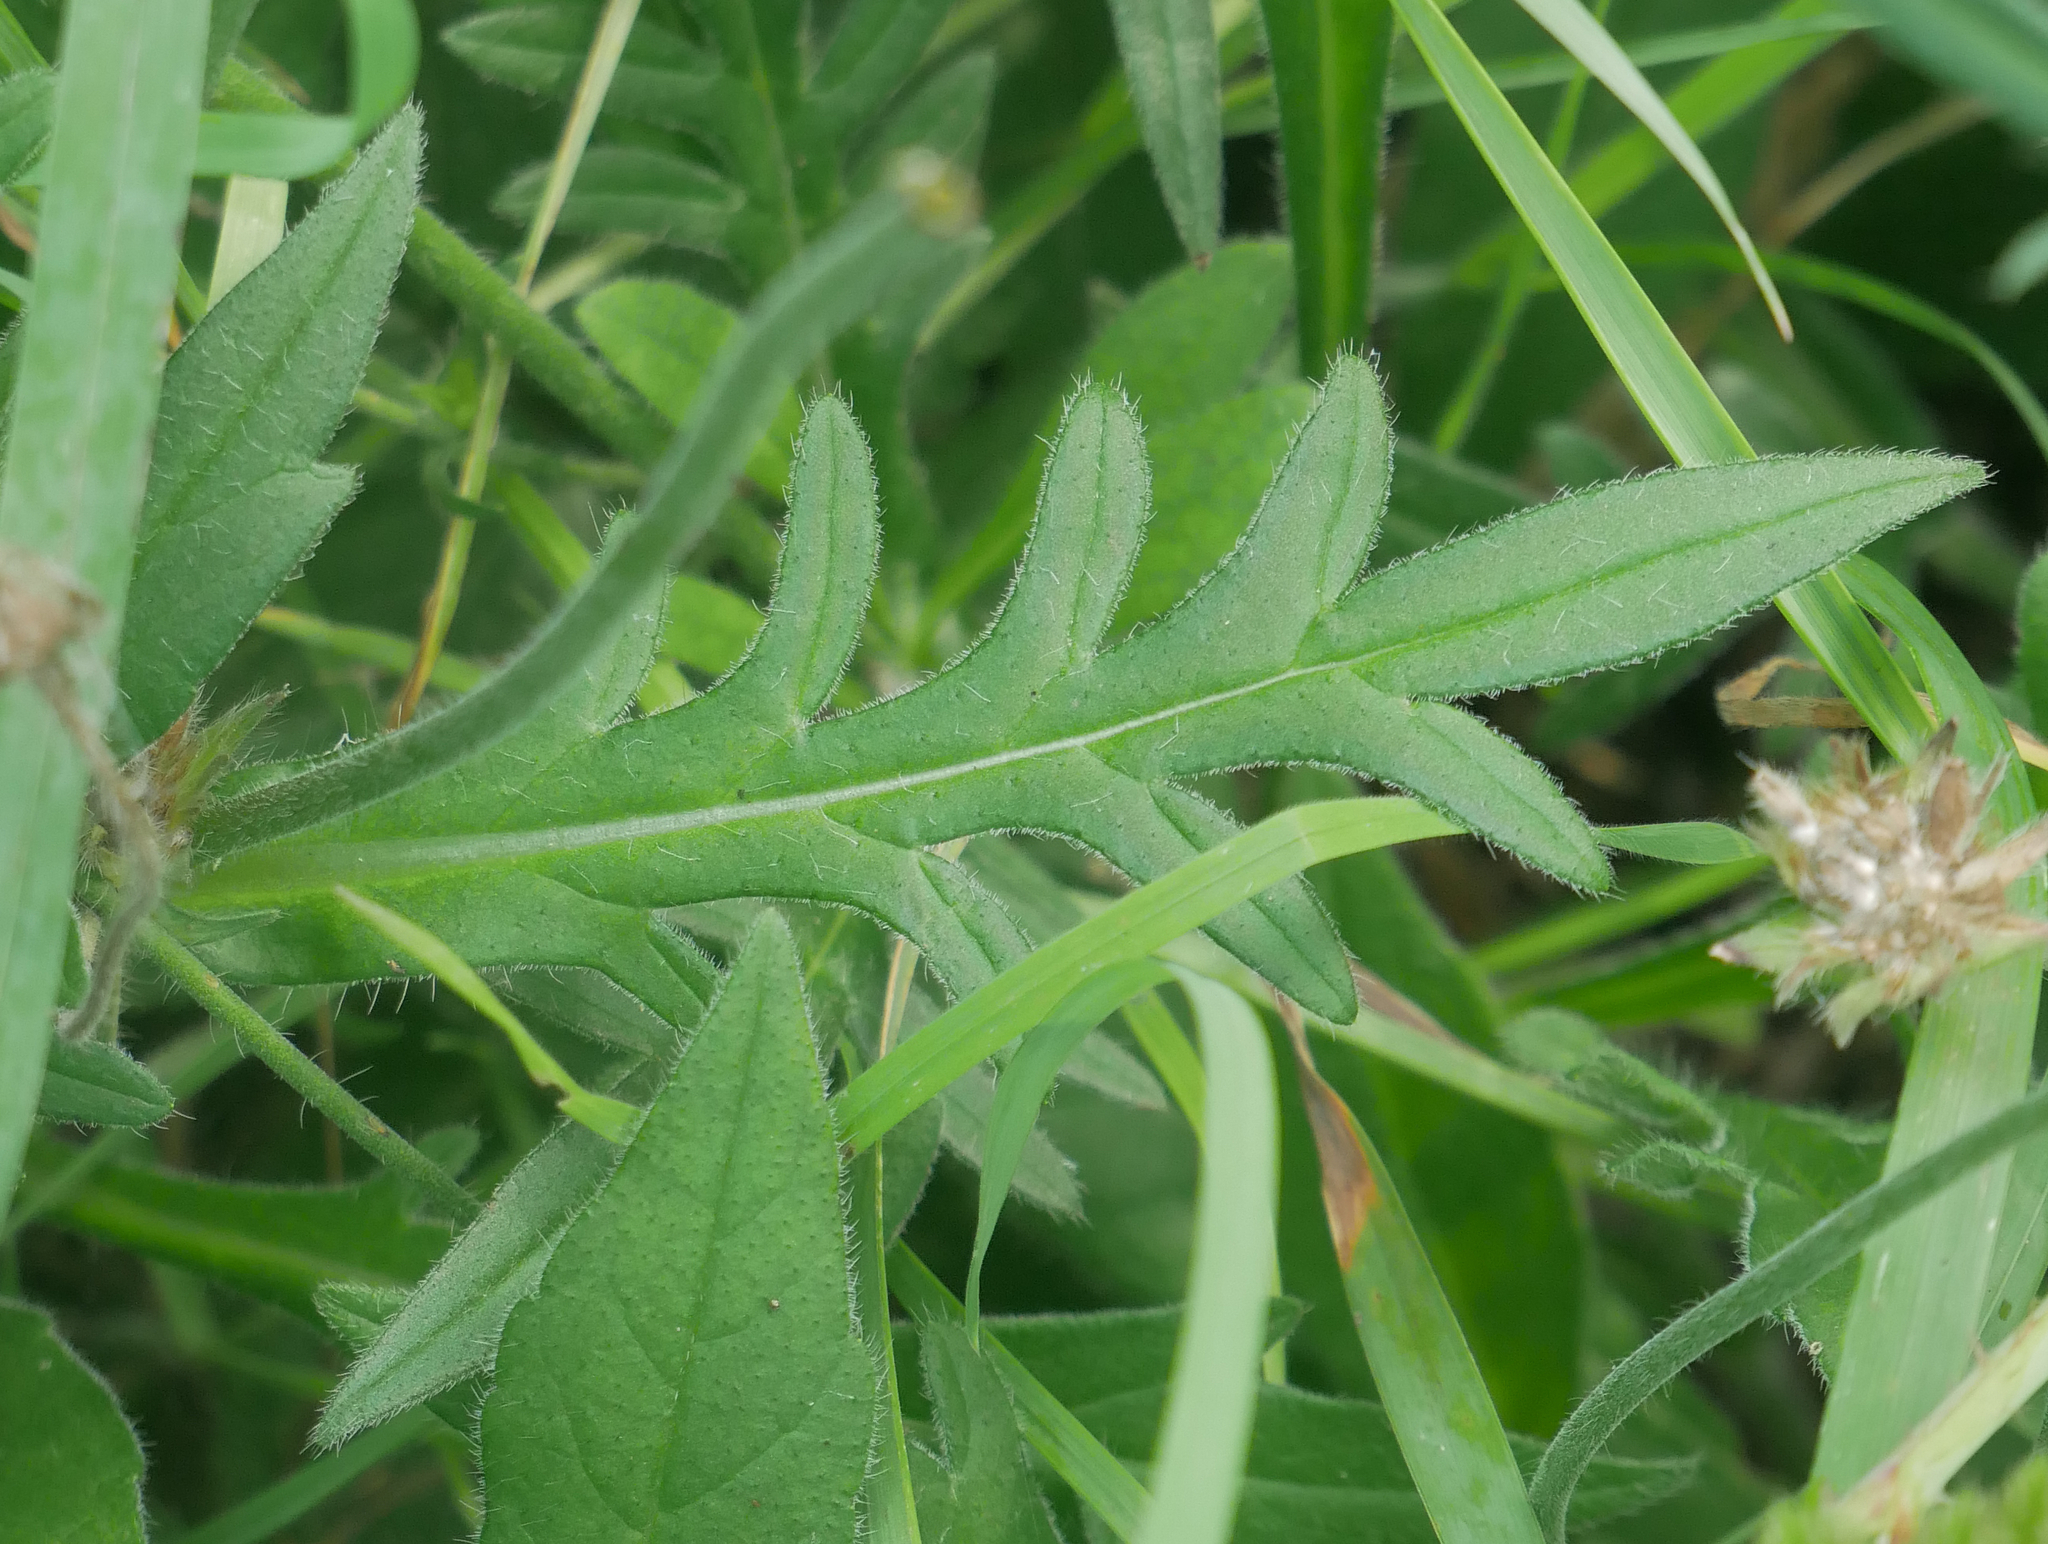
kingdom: Plantae
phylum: Tracheophyta
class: Magnoliopsida
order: Dipsacales
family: Caprifoliaceae
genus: Knautia
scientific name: Knautia arvensis
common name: Field scabiosa
